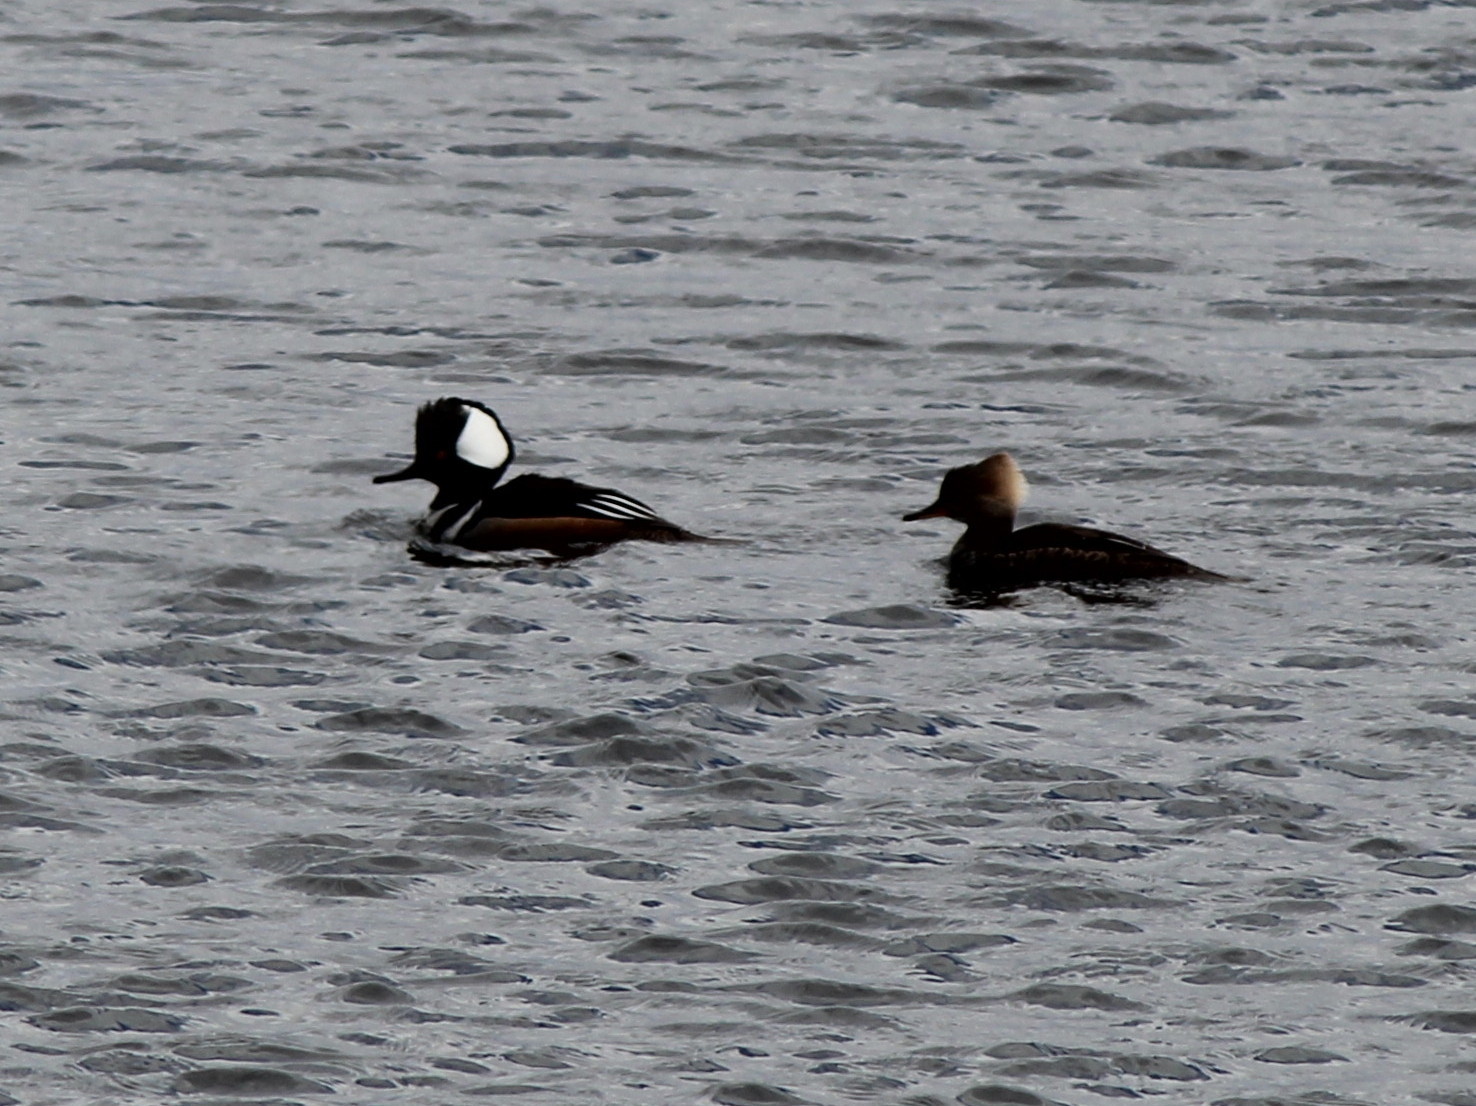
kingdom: Animalia
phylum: Chordata
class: Aves
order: Anseriformes
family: Anatidae
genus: Lophodytes
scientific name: Lophodytes cucullatus
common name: Hooded merganser
